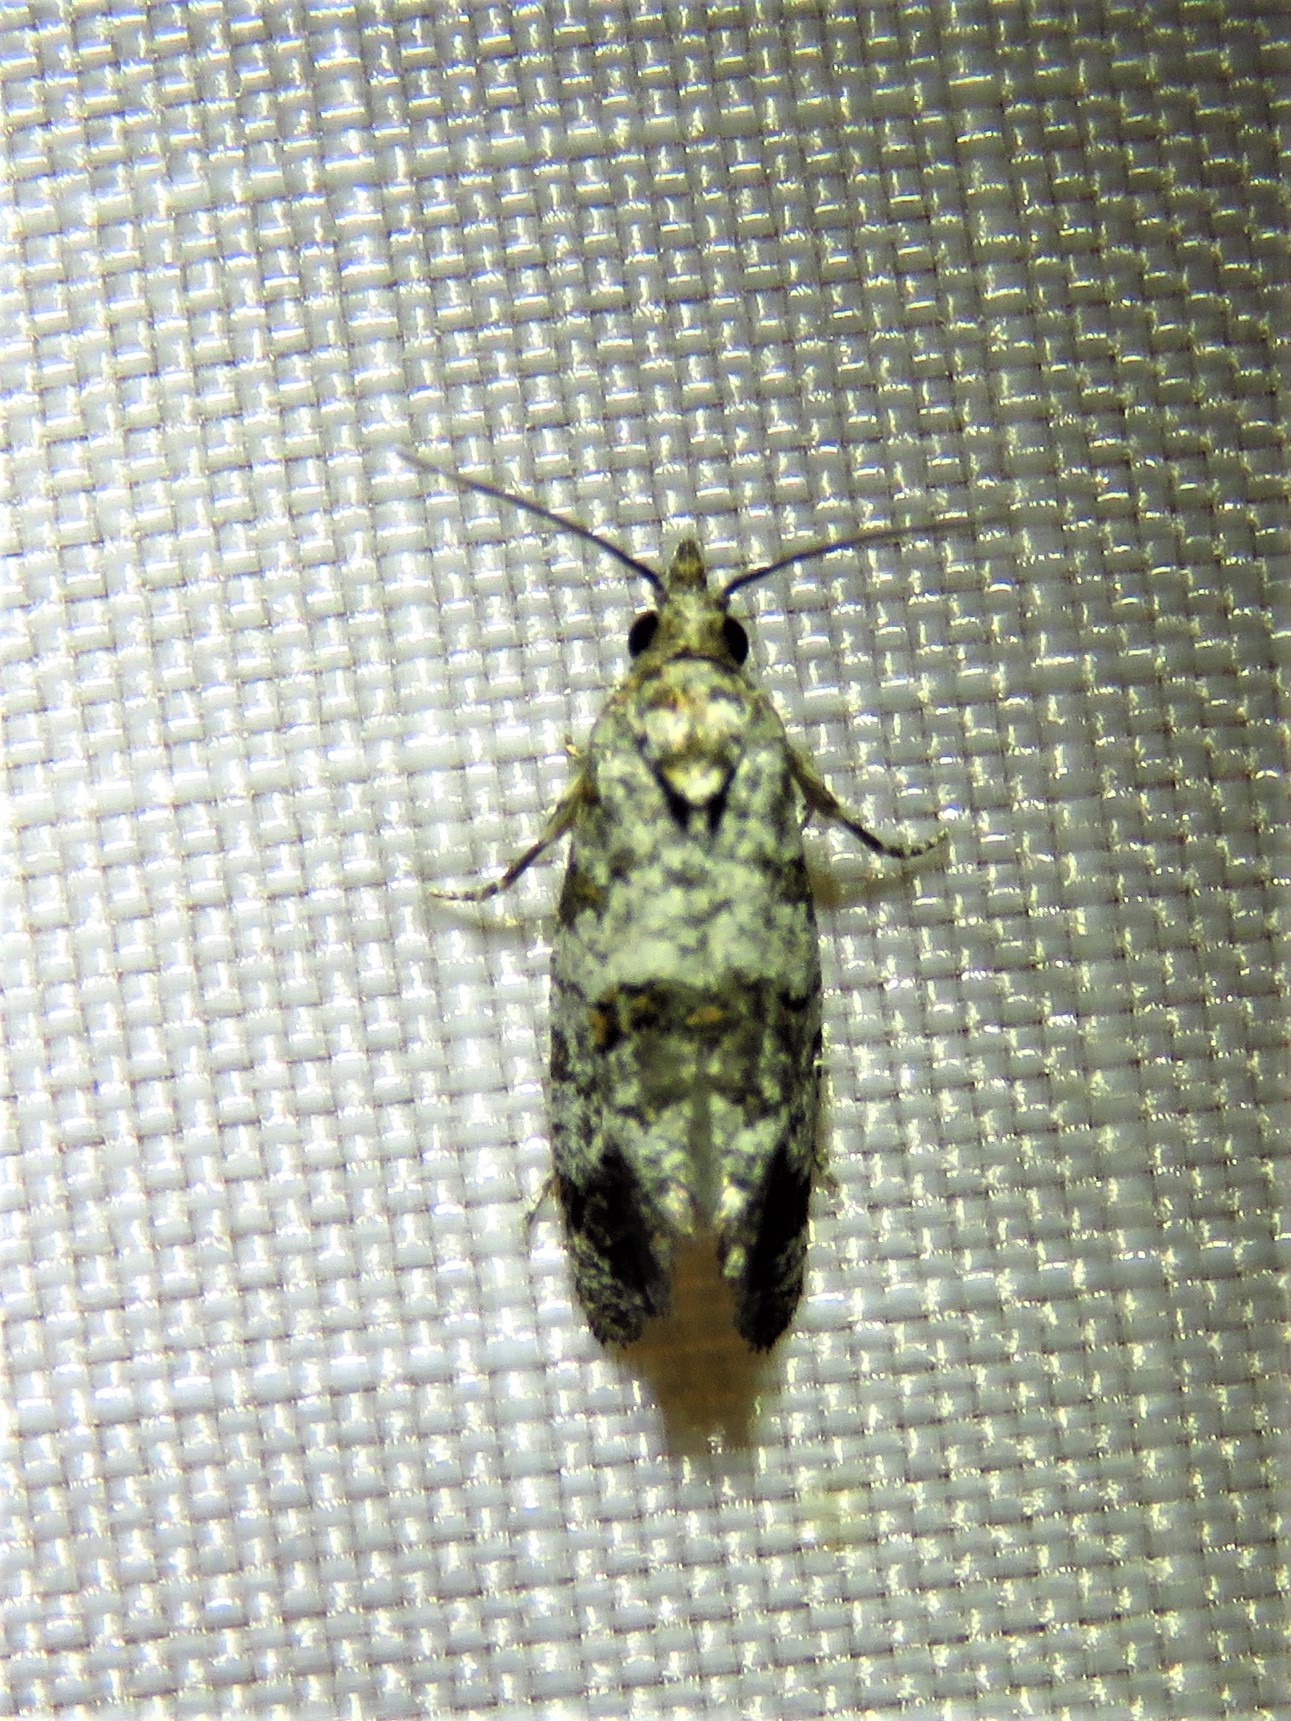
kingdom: Animalia
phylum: Arthropoda
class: Insecta
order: Lepidoptera
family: Tortricidae
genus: Rudenia
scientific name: Rudenia leguminana
